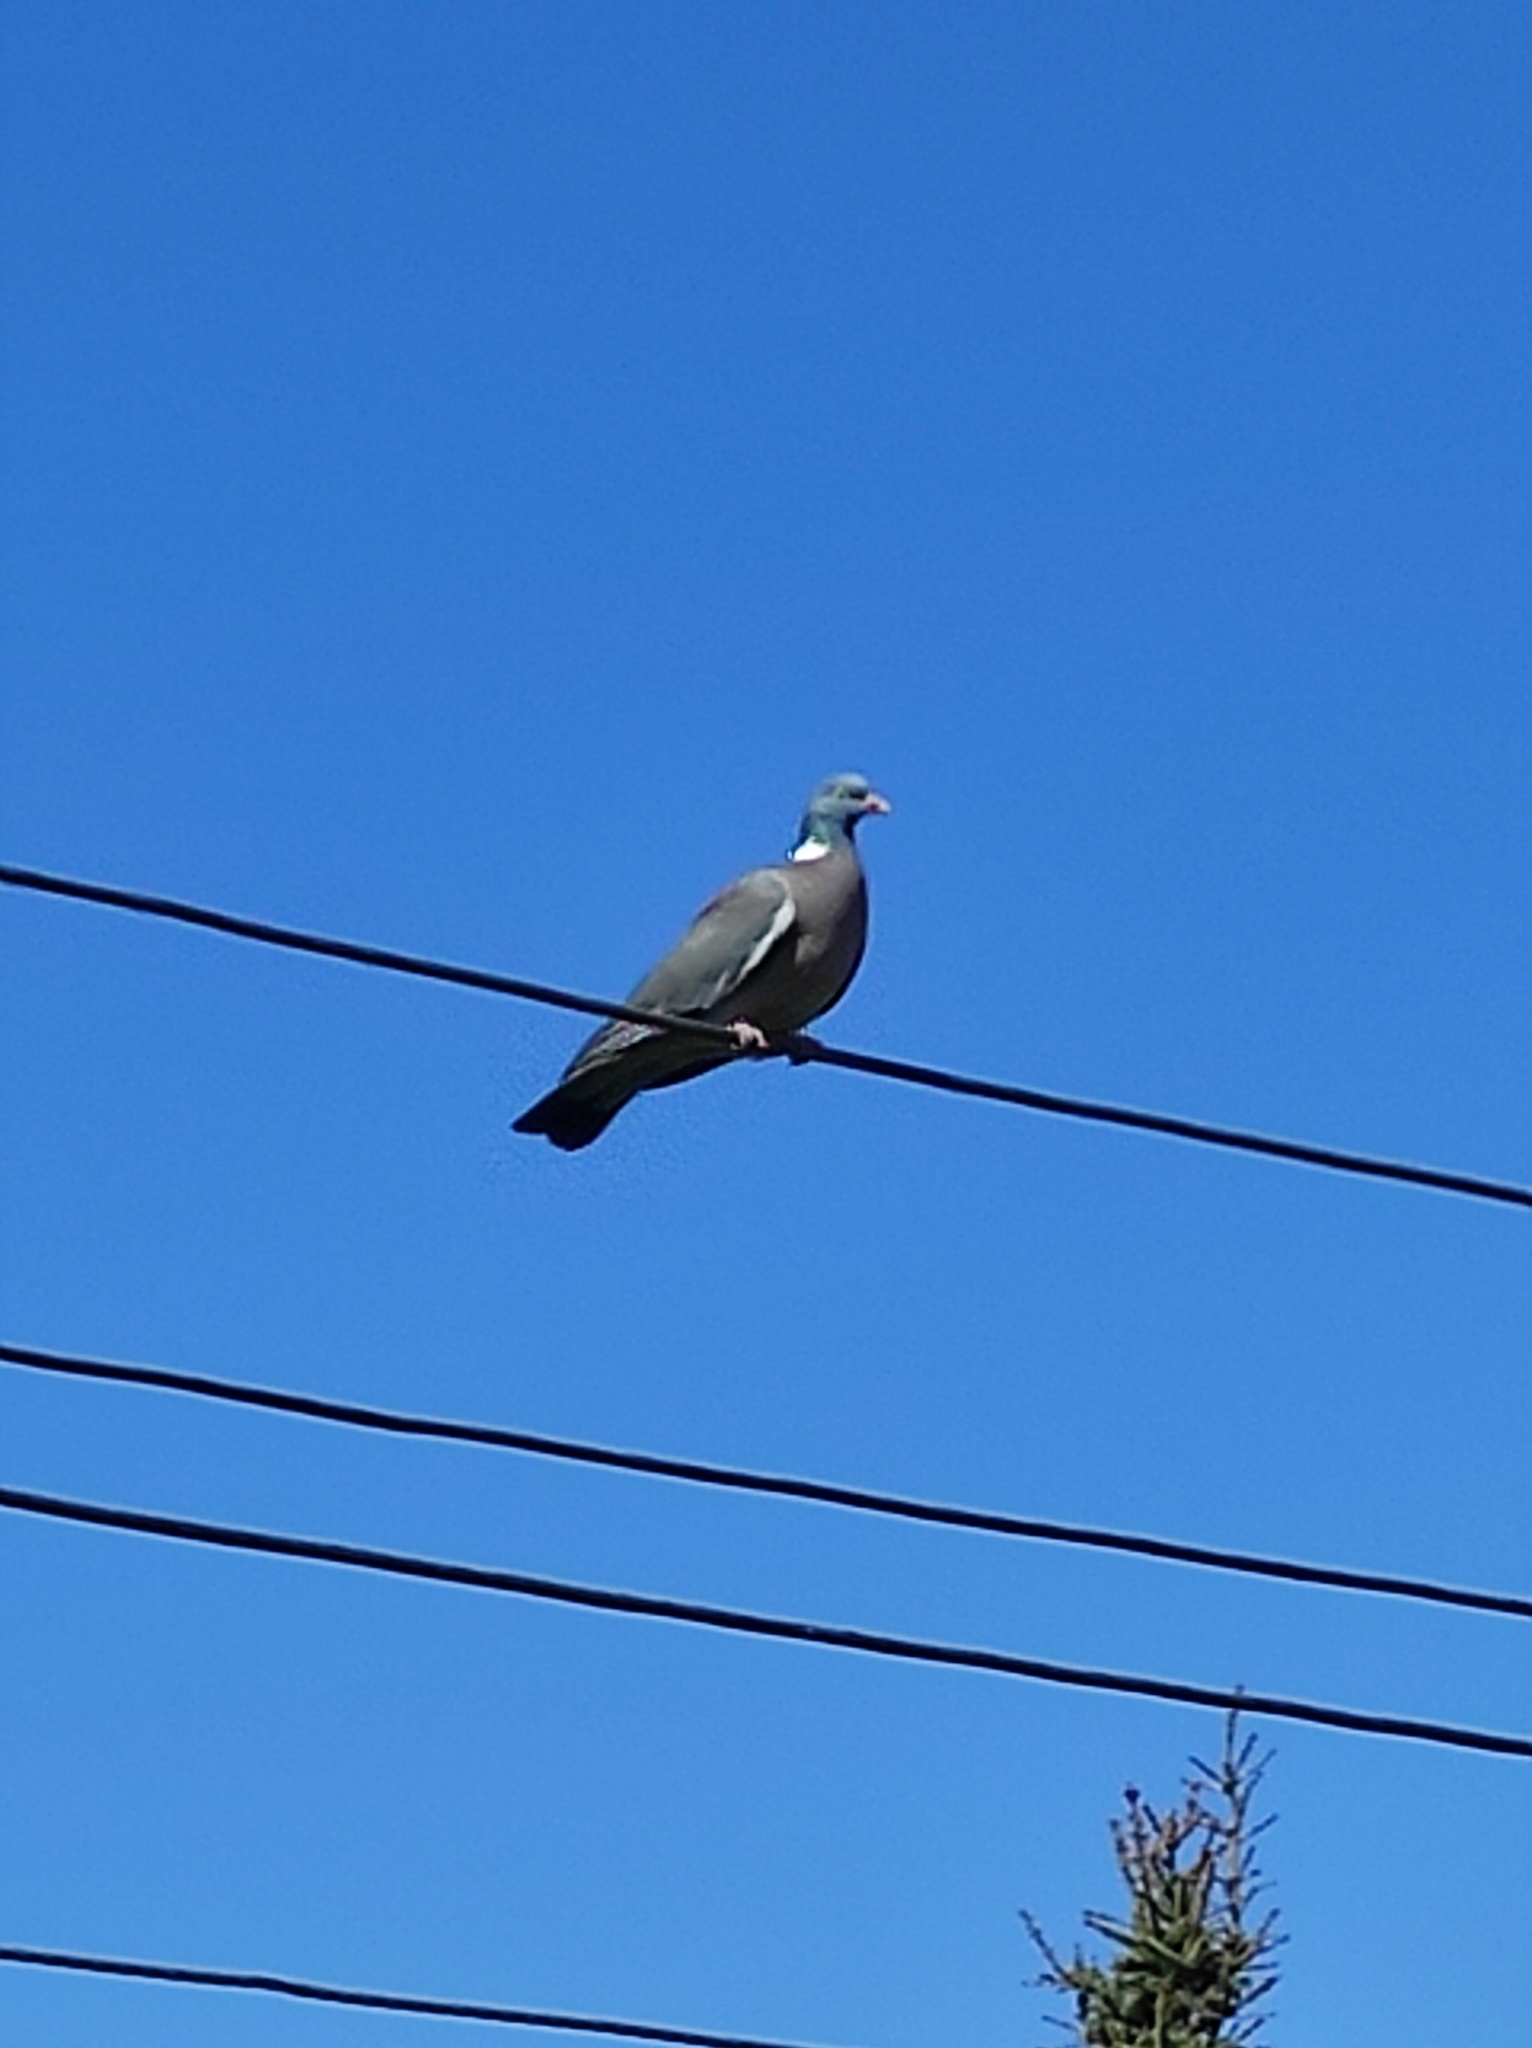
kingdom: Animalia
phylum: Chordata
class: Aves
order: Columbiformes
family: Columbidae
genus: Columba
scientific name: Columba palumbus
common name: Common wood pigeon
